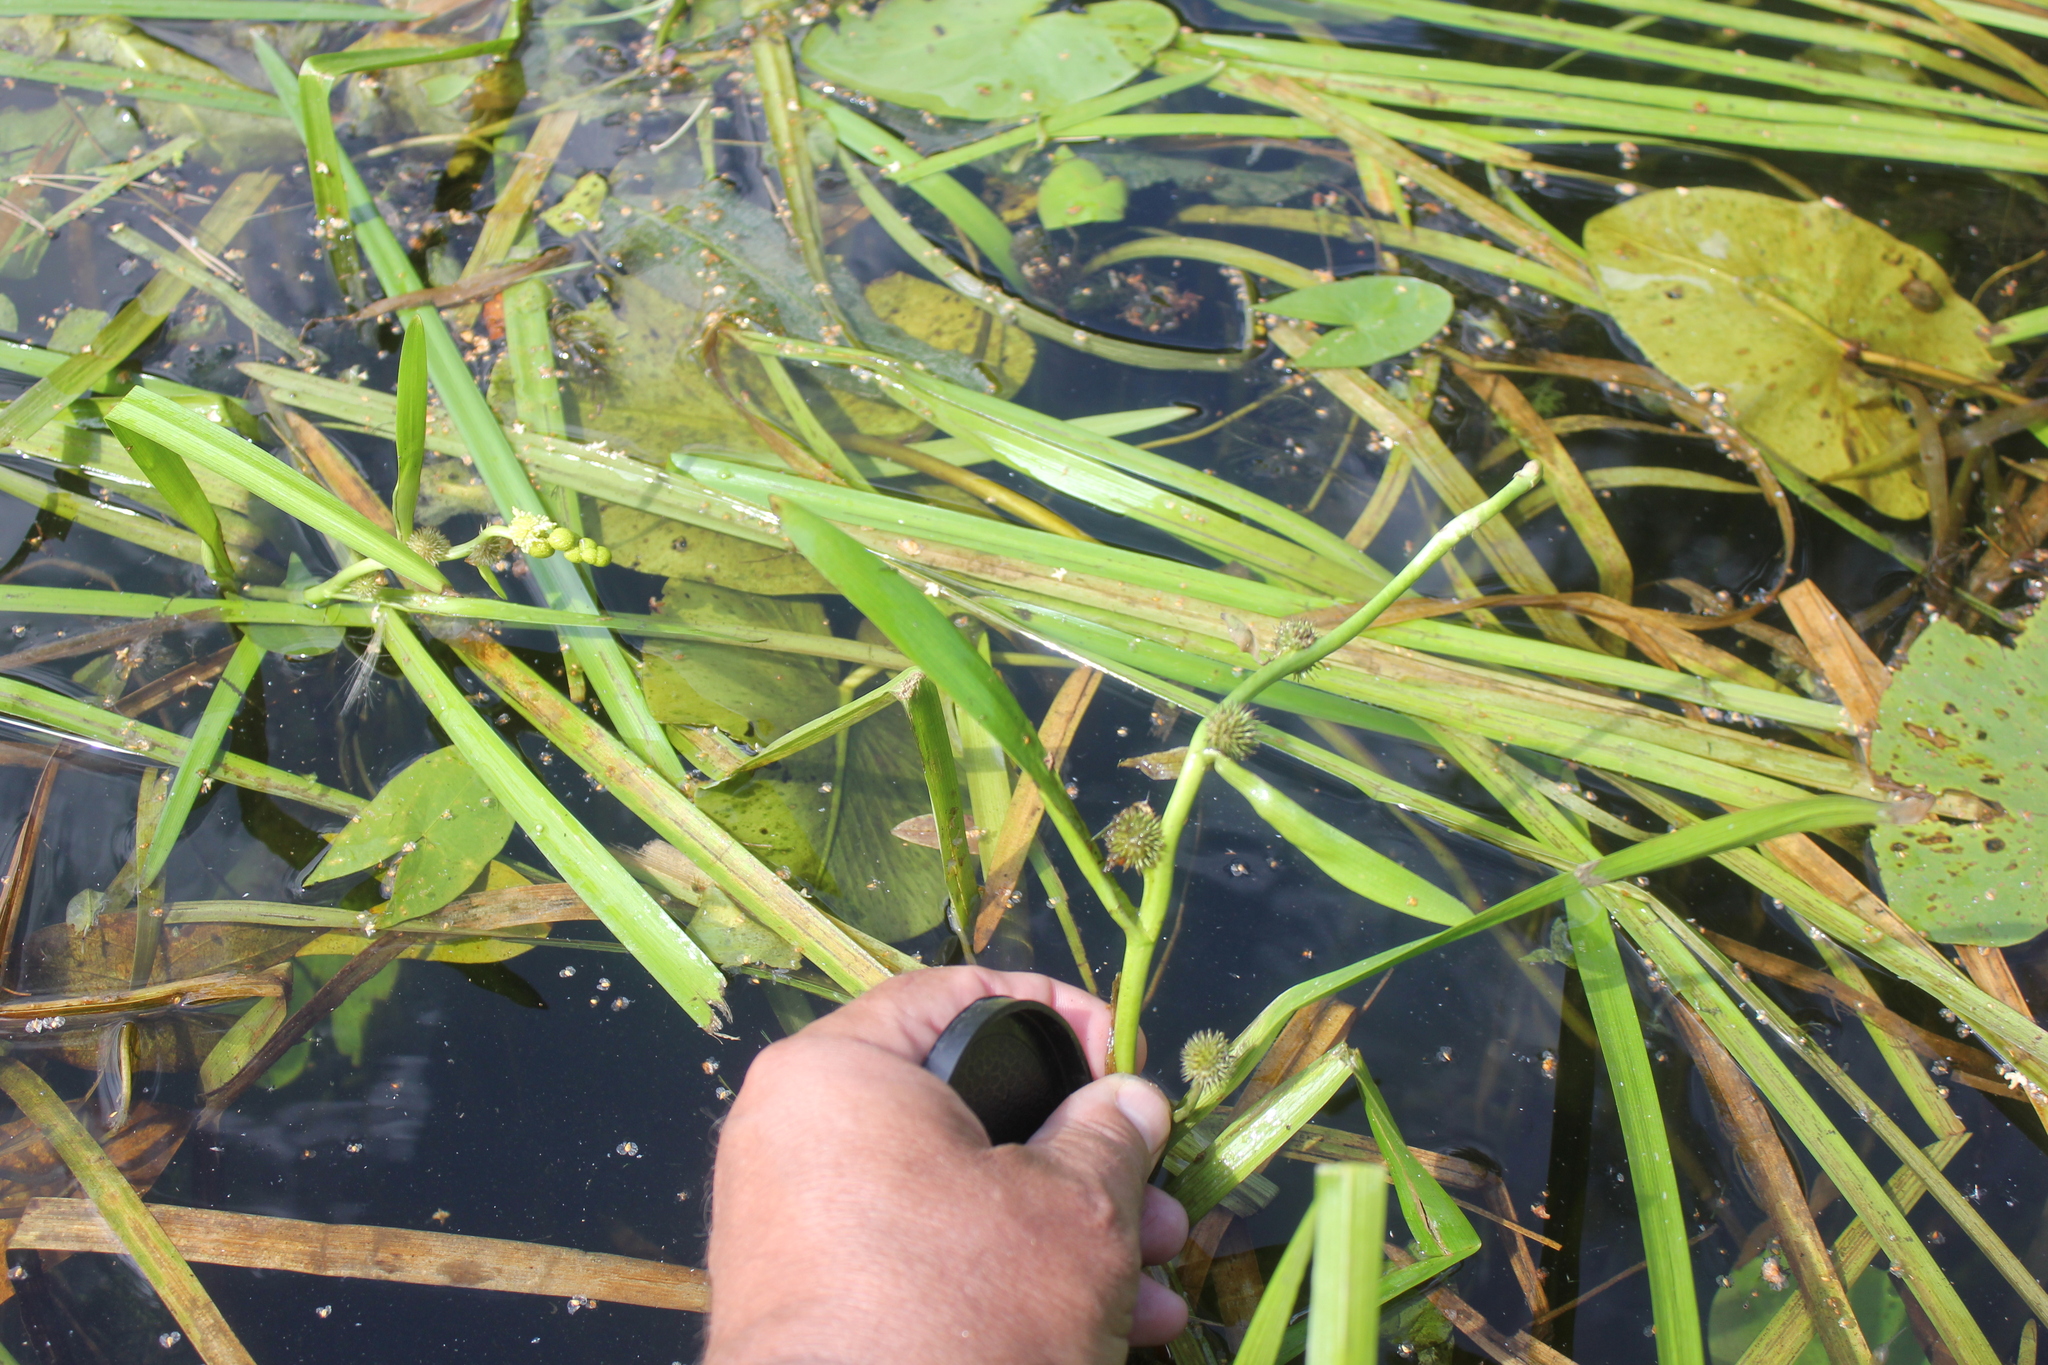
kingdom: Plantae
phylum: Tracheophyta
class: Liliopsida
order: Poales
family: Typhaceae
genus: Sparganium
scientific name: Sparganium emersum
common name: Unbranched bur-reed
